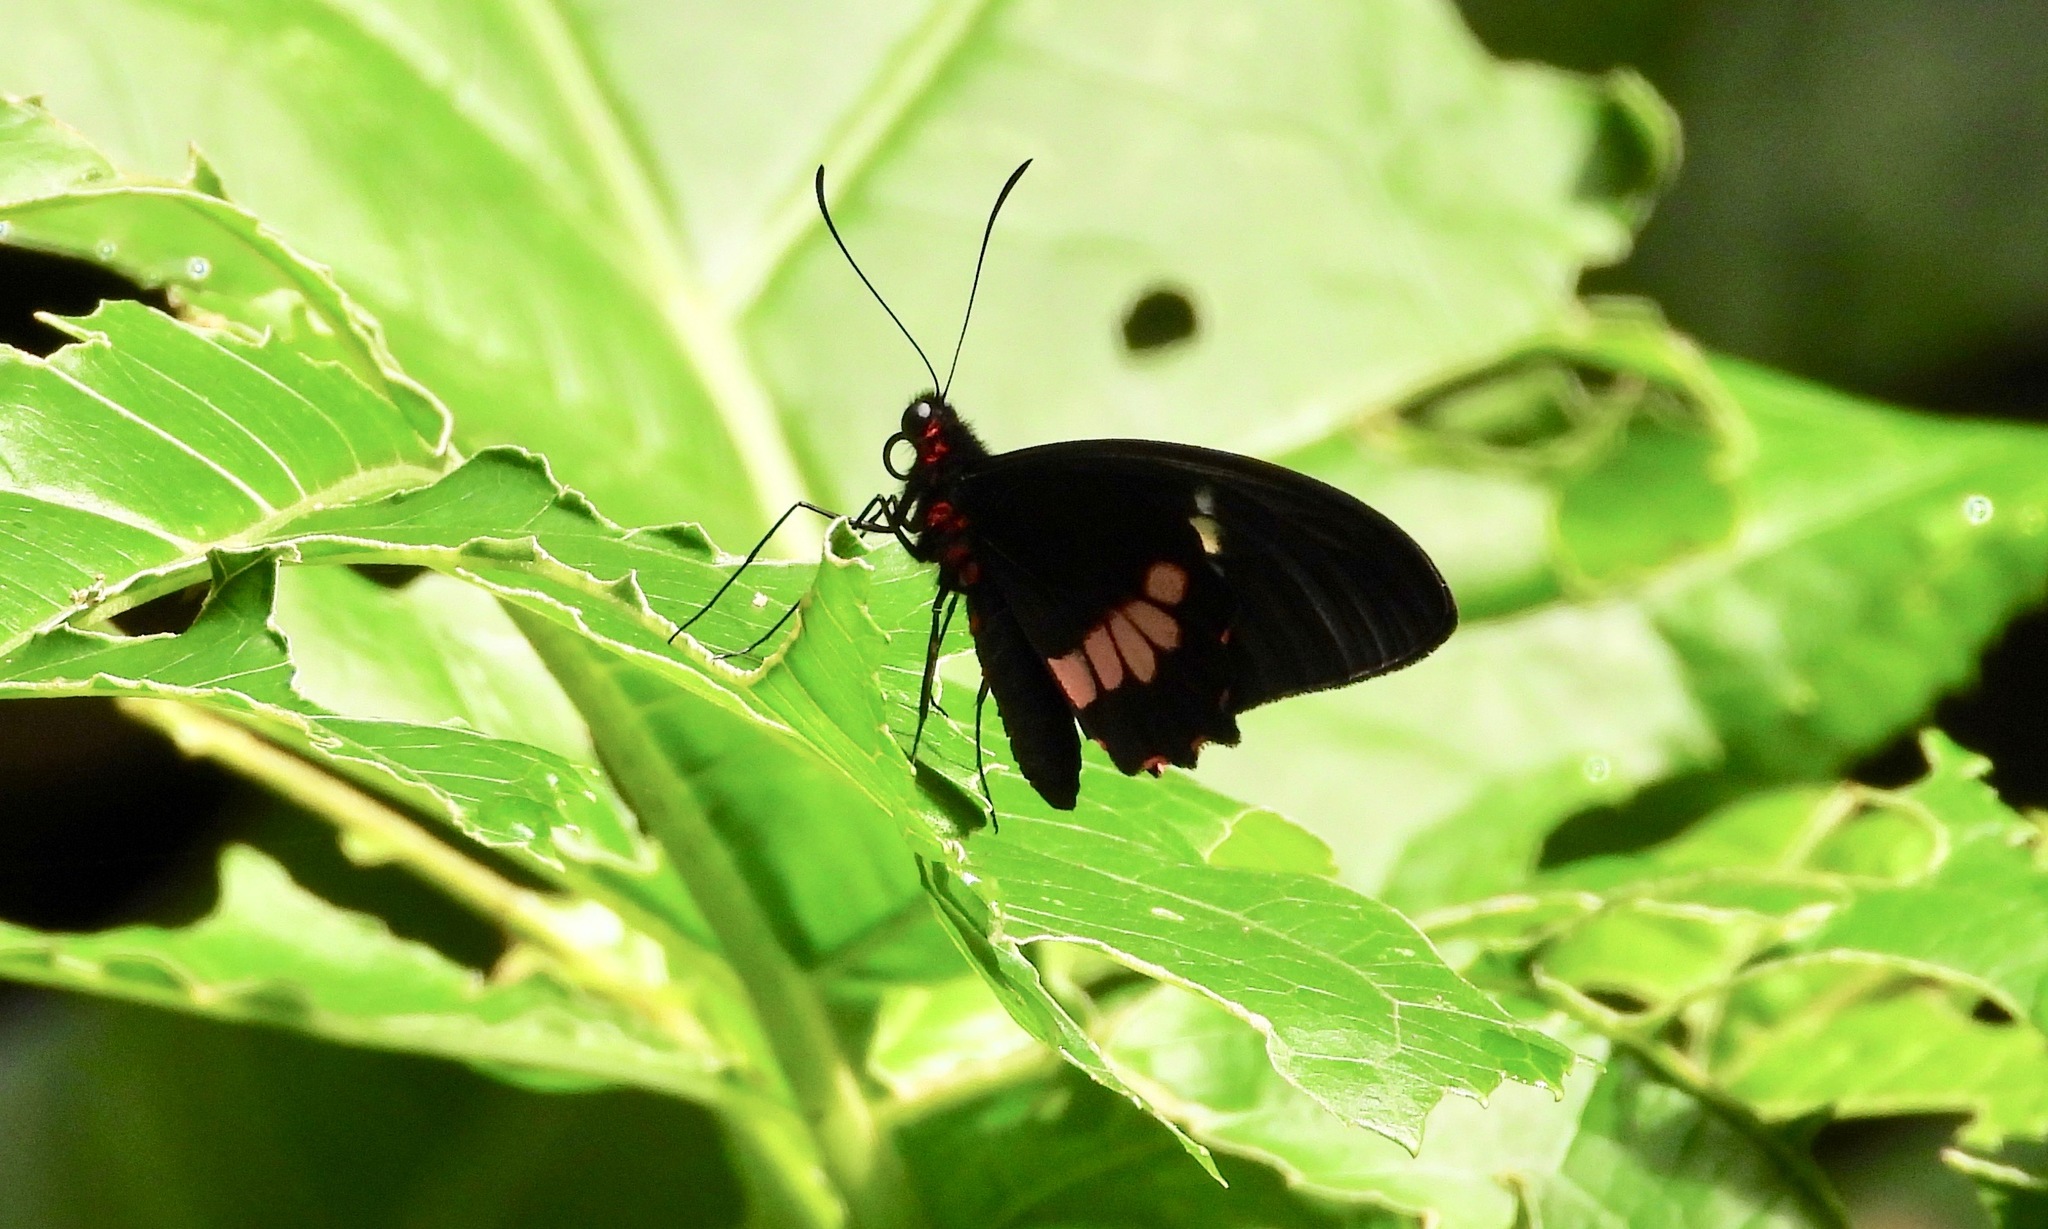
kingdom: Animalia
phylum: Arthropoda
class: Insecta
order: Lepidoptera
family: Papilionidae
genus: Parides
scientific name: Parides eurimedes
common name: True cattleheart
